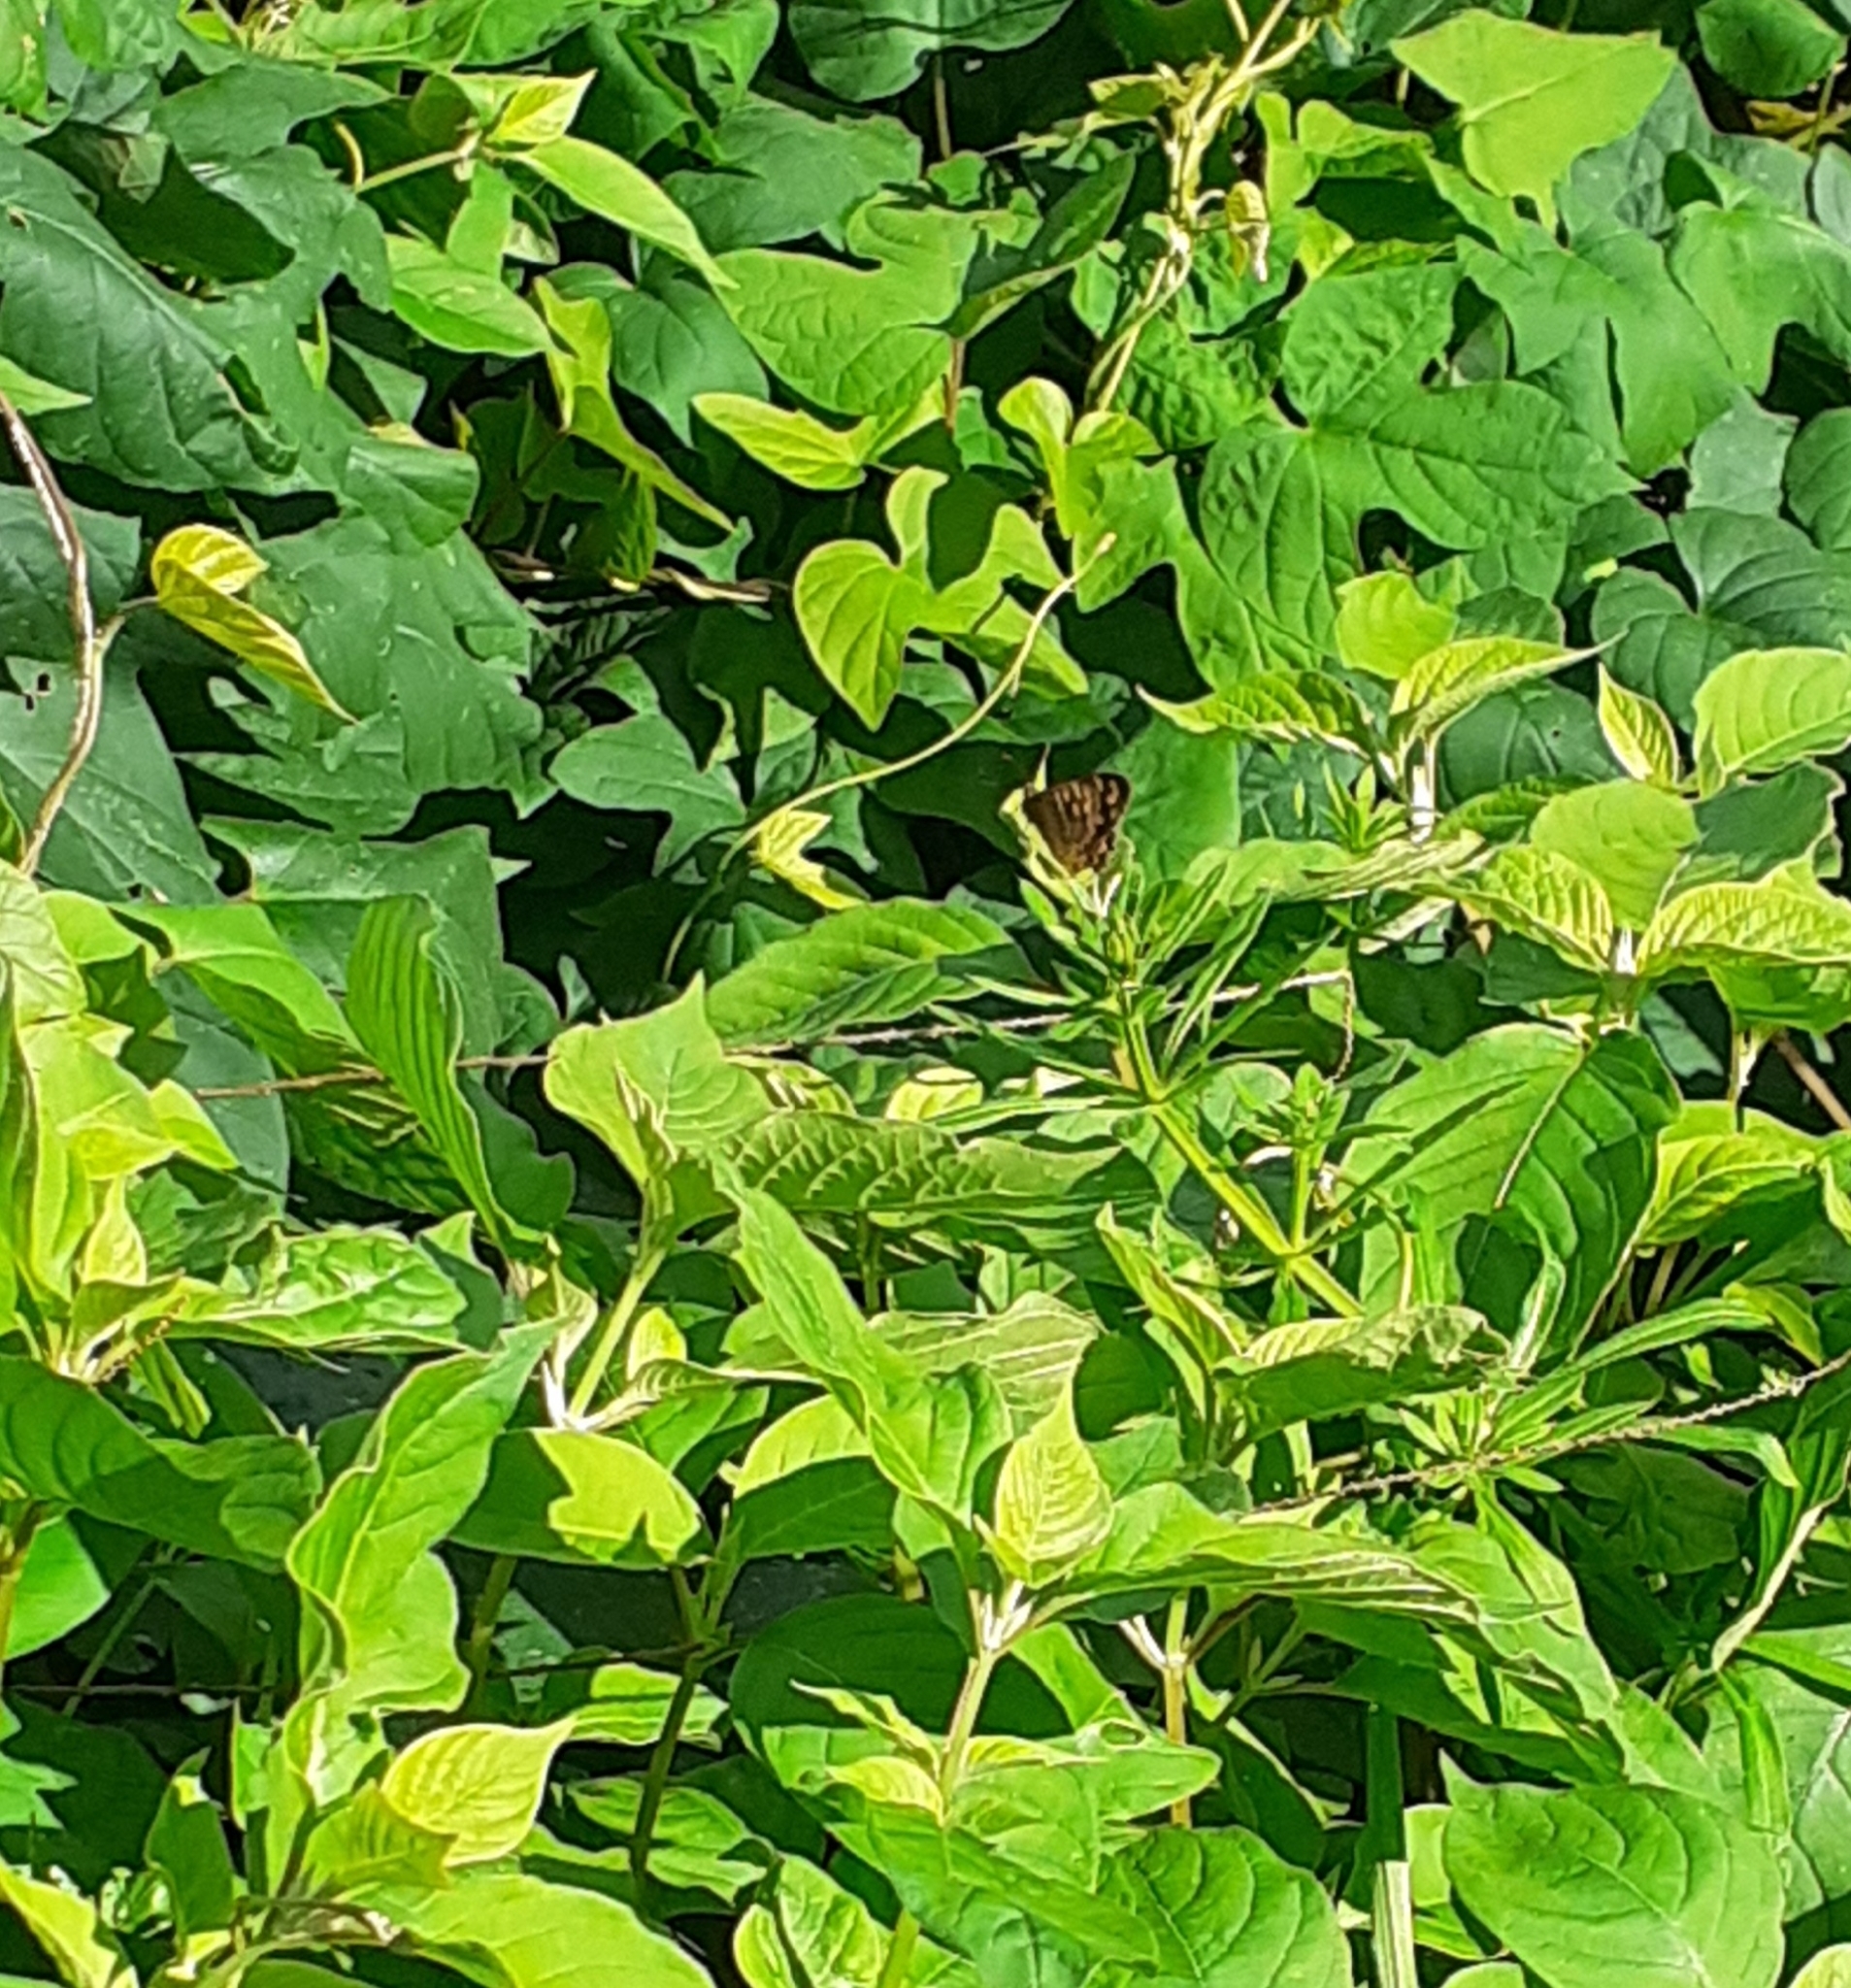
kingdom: Animalia
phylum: Arthropoda
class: Insecta
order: Lepidoptera
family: Nymphalidae
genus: Pararge
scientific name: Pararge aegeria
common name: Speckled wood
